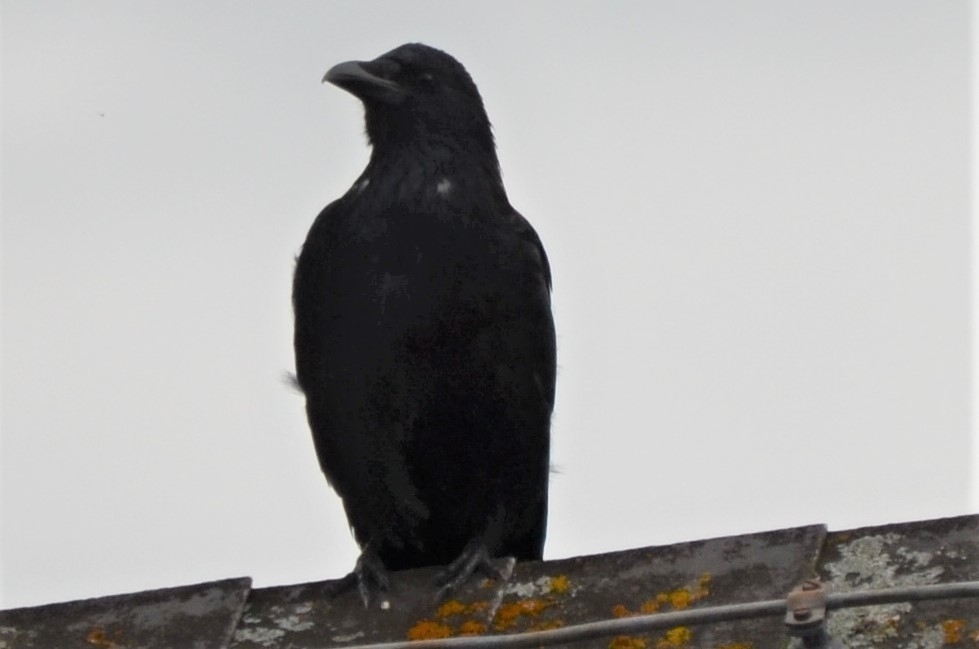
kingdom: Animalia
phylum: Chordata
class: Aves
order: Passeriformes
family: Corvidae
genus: Corvus
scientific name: Corvus corone
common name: Carrion crow
